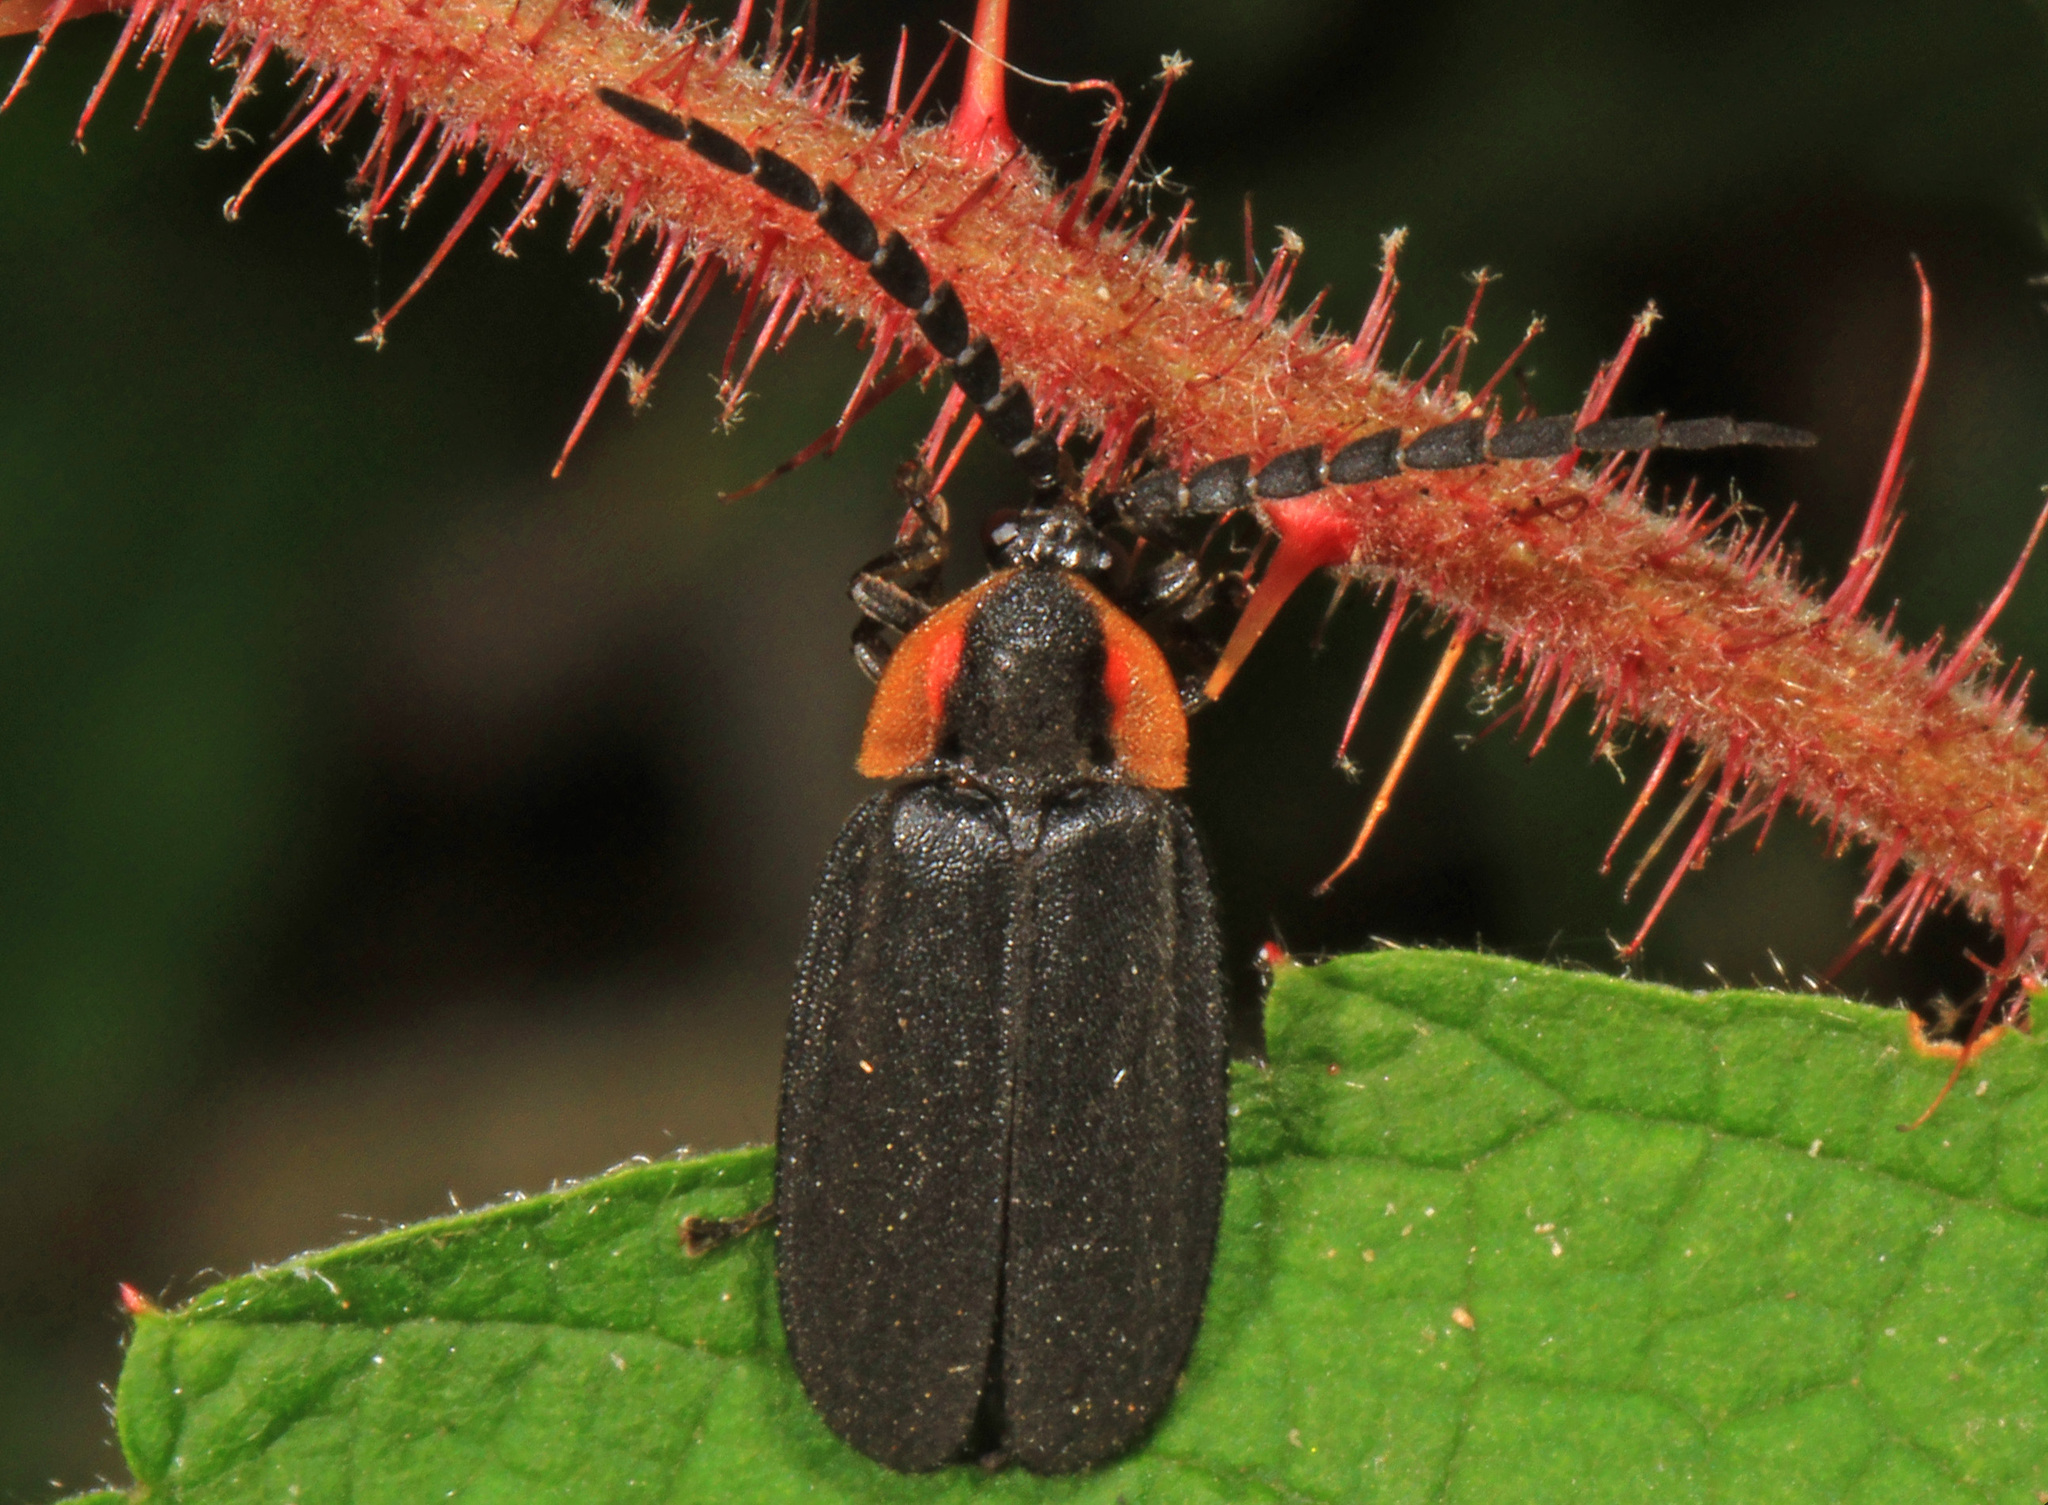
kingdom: Animalia
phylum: Arthropoda
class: Insecta
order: Coleoptera
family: Lampyridae
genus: Lucidota
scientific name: Lucidota atra
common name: Black firefly
